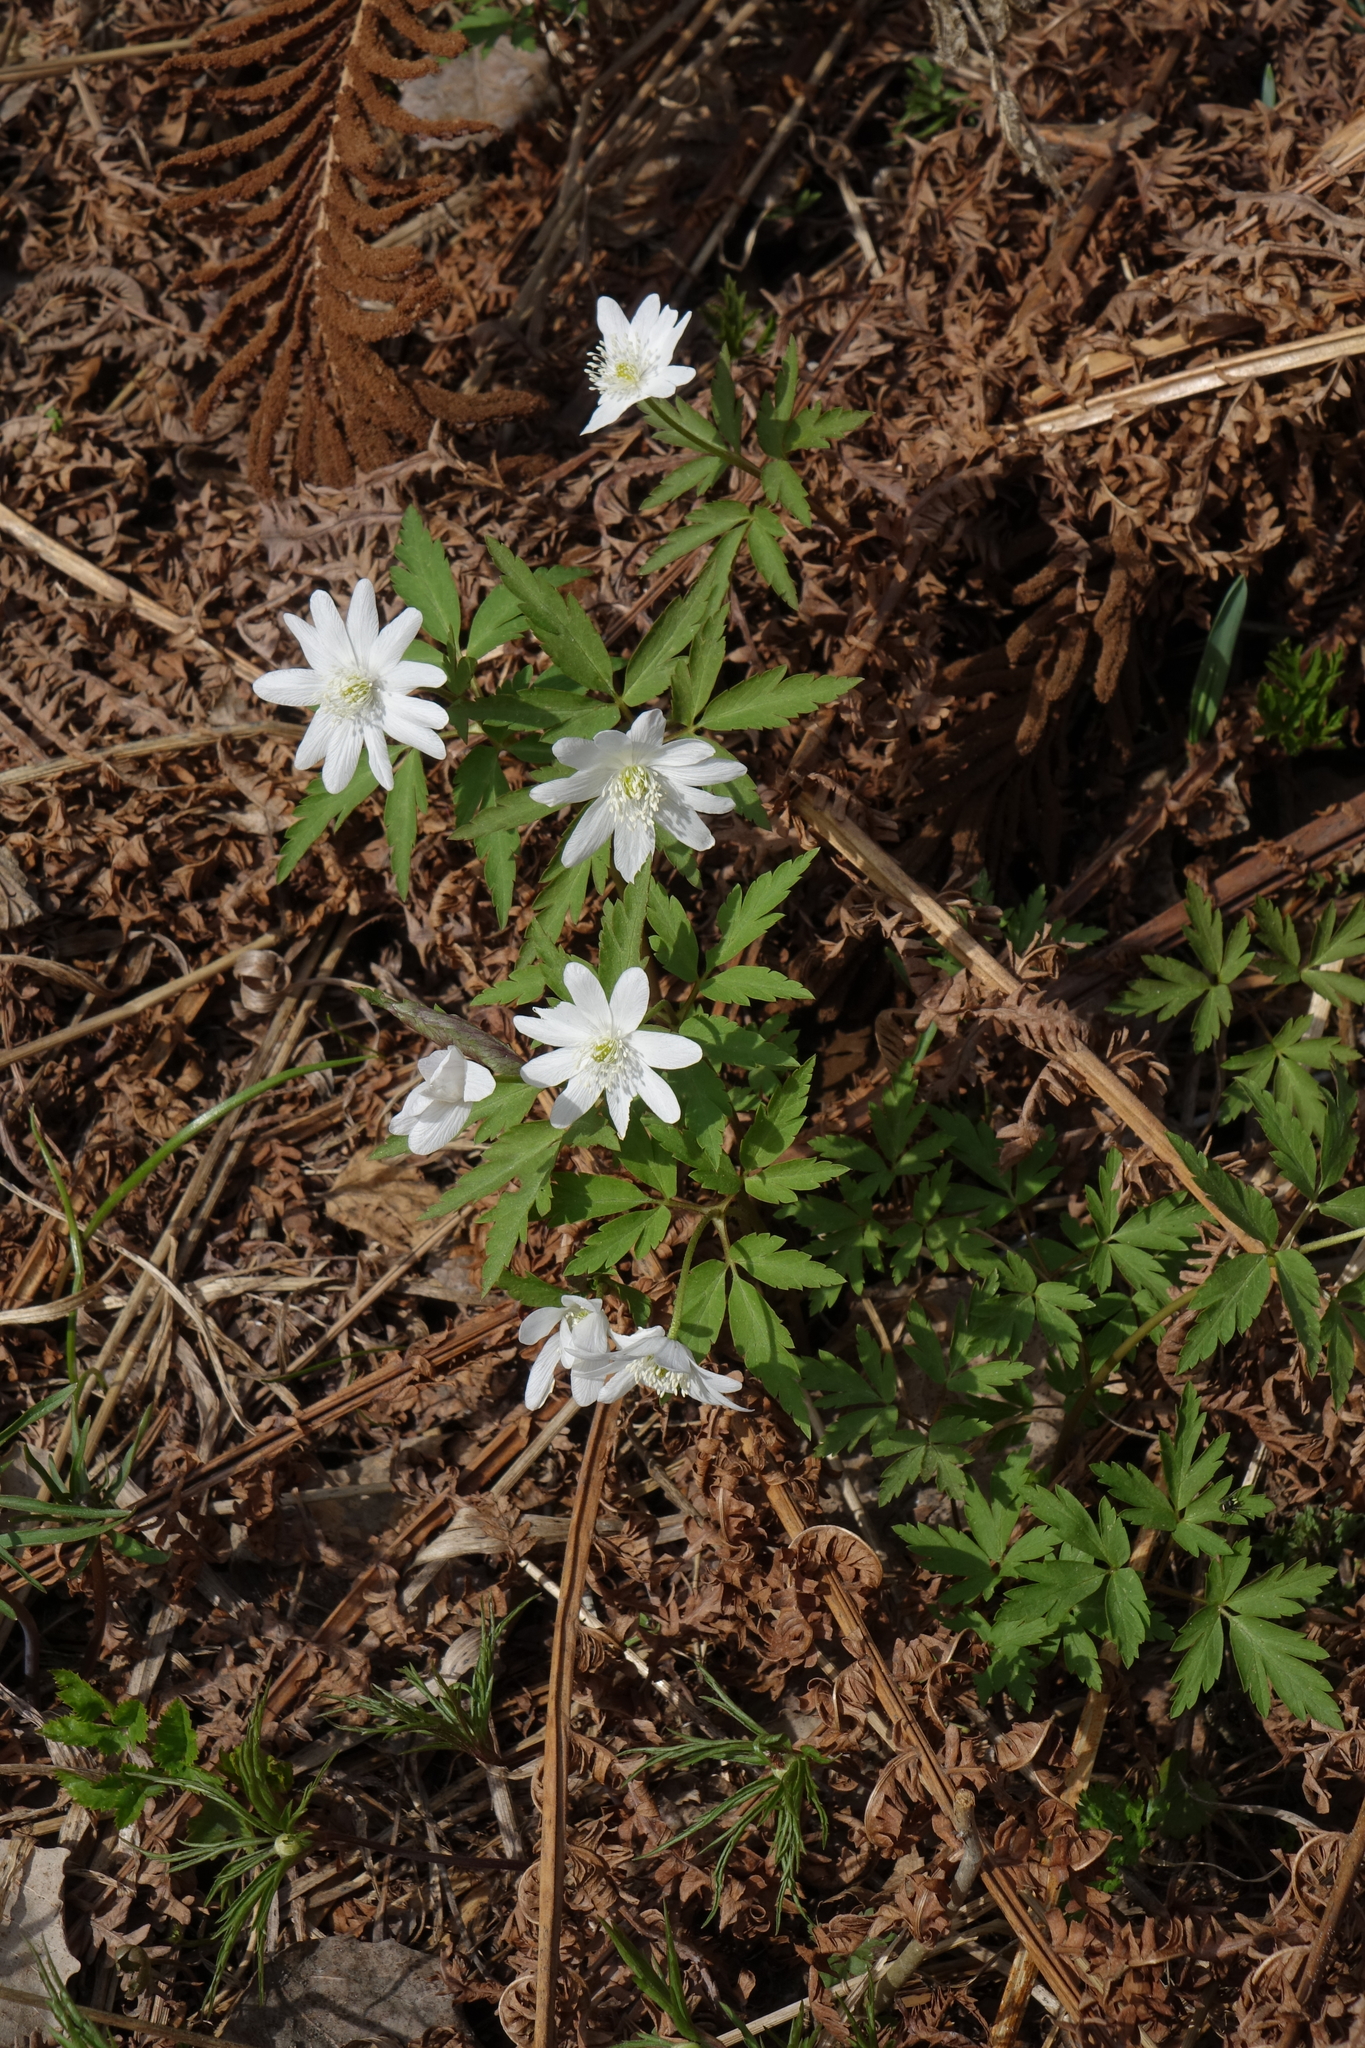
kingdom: Plantae
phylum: Tracheophyta
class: Magnoliopsida
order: Ranunculales
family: Ranunculaceae
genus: Anemone
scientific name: Anemone altaica
